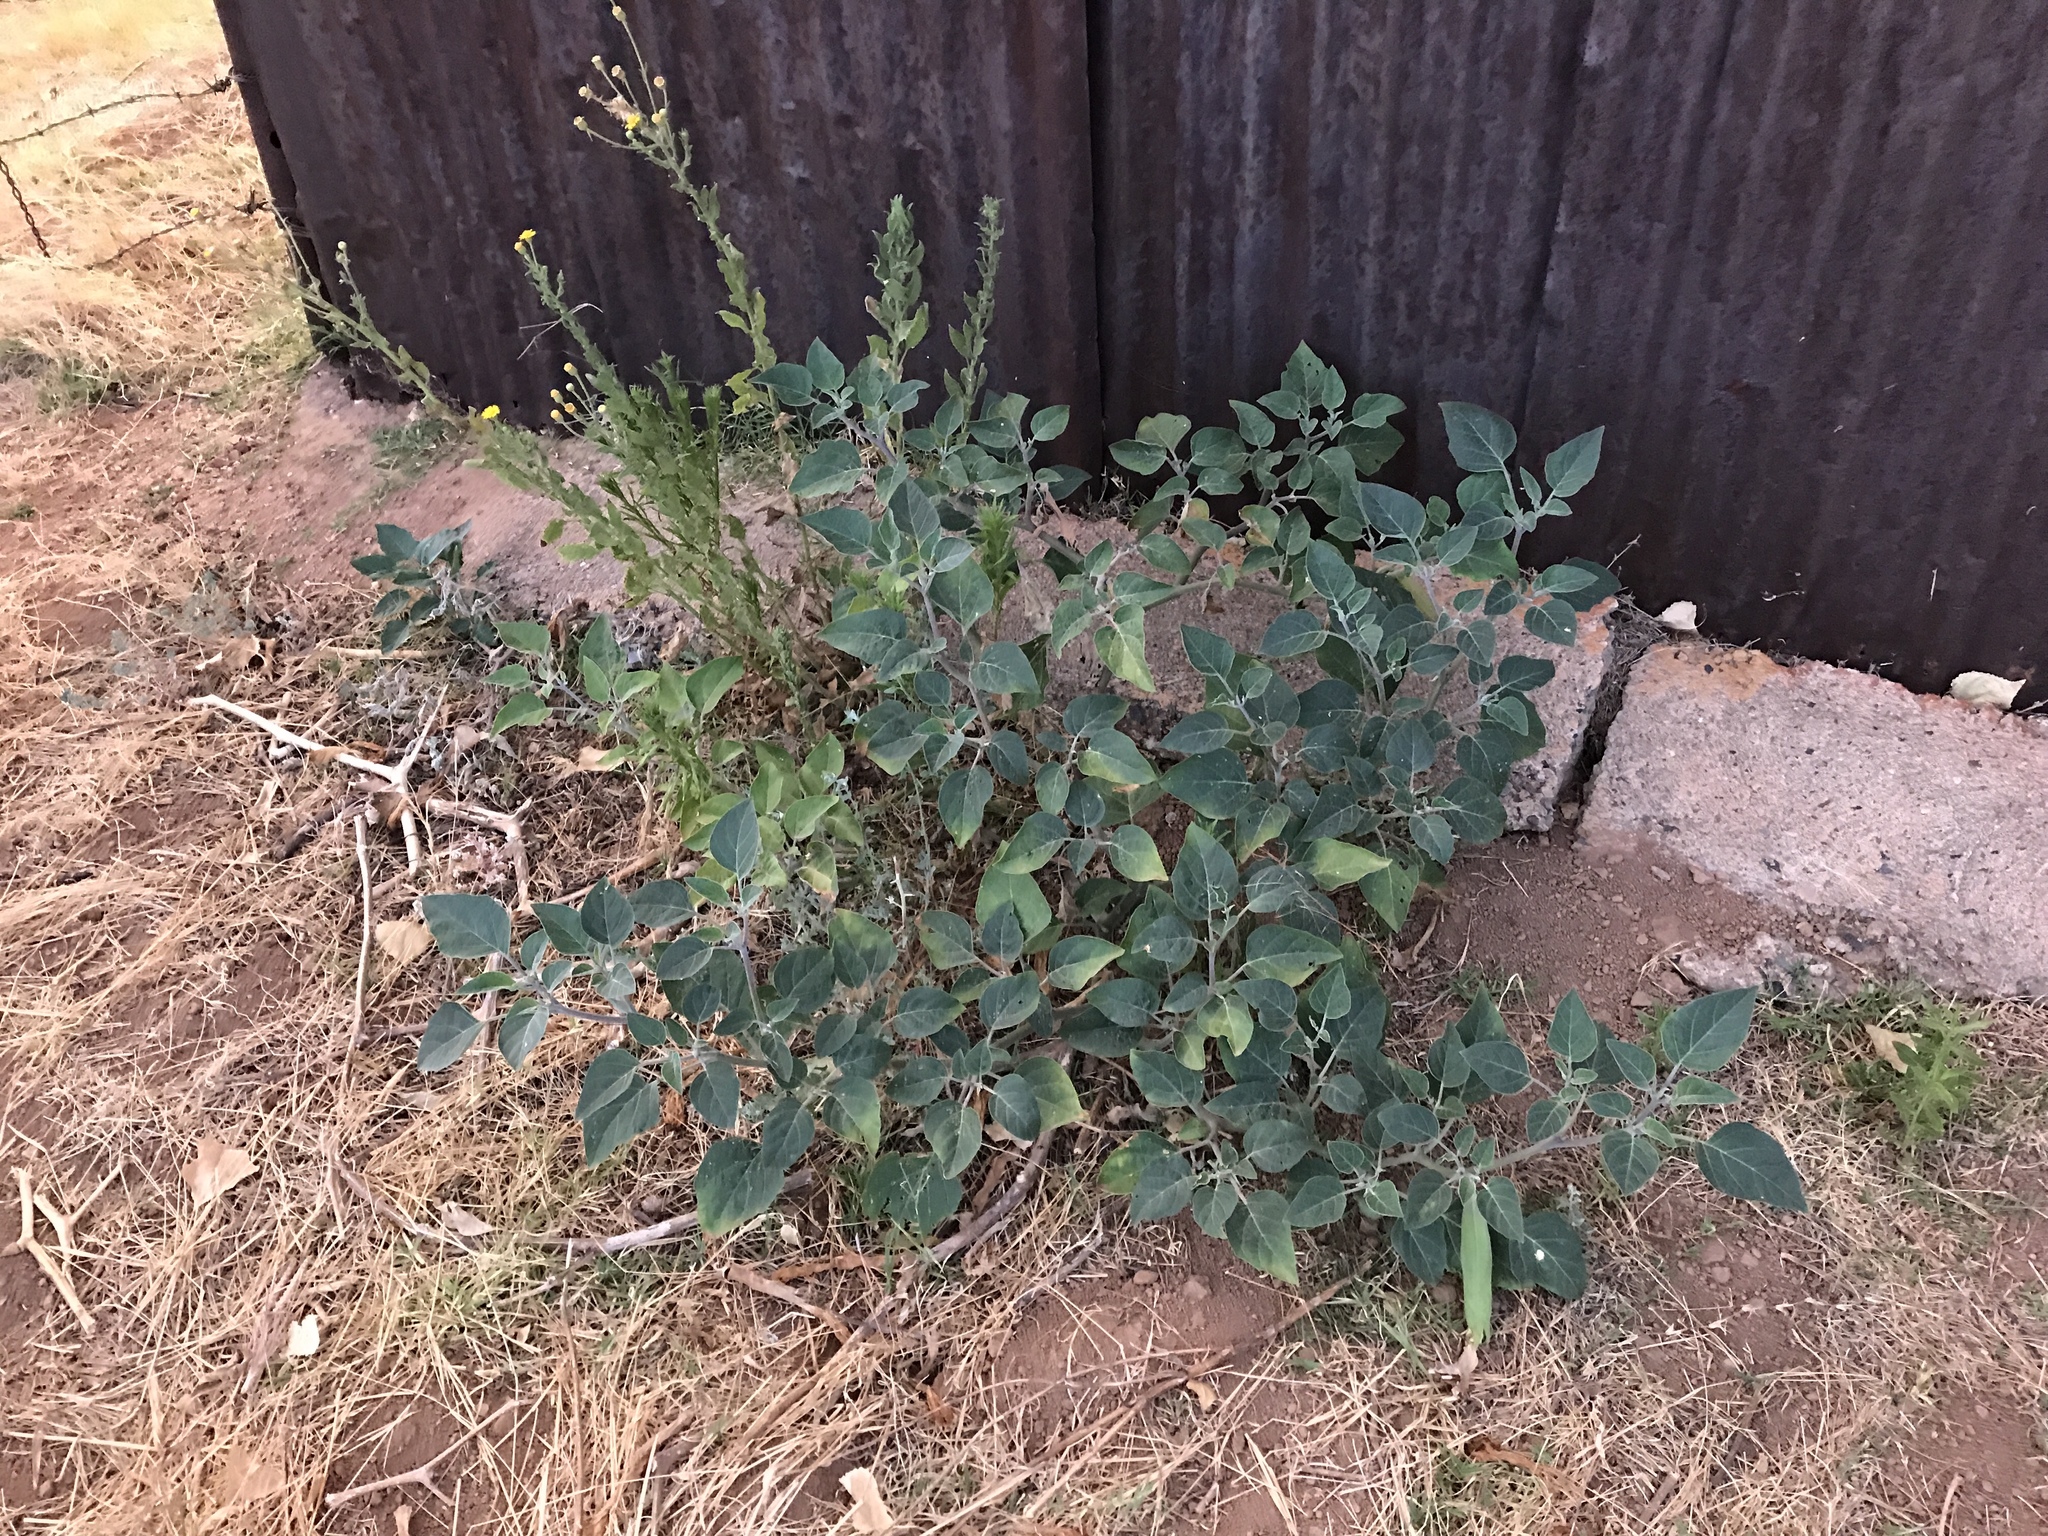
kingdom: Plantae
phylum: Tracheophyta
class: Magnoliopsida
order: Solanales
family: Solanaceae
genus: Datura
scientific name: Datura wrightii
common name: Sacred thorn-apple
